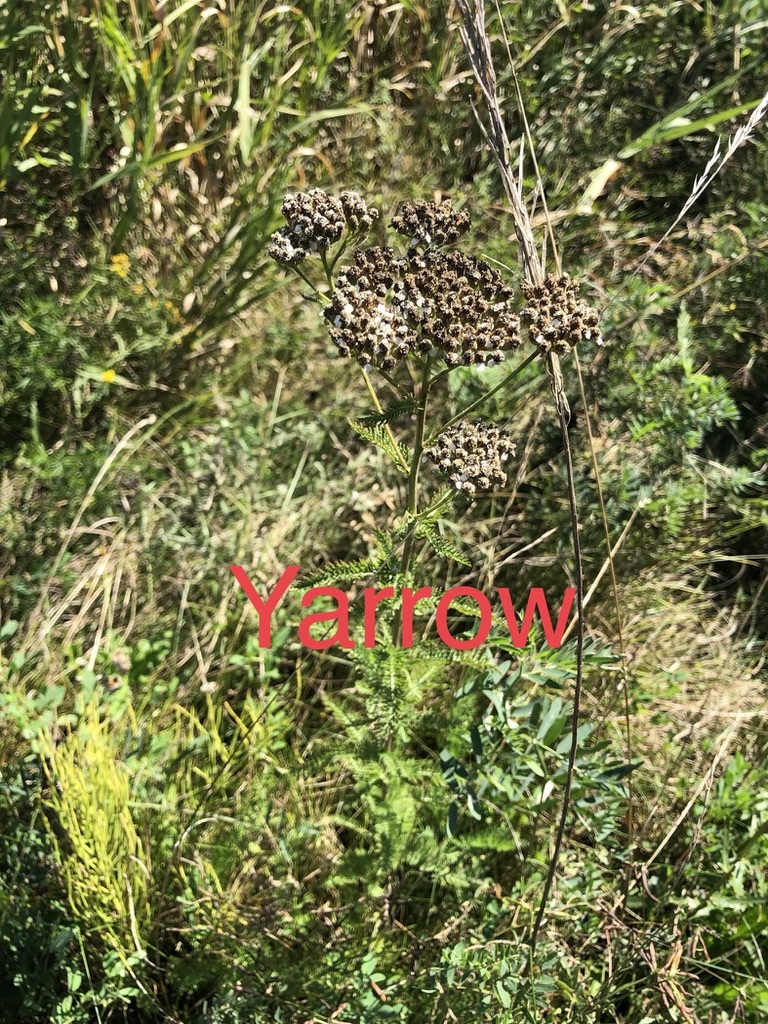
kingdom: Plantae
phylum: Tracheophyta
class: Magnoliopsida
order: Asterales
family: Asteraceae
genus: Achillea
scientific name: Achillea millefolium
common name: Yarrow
